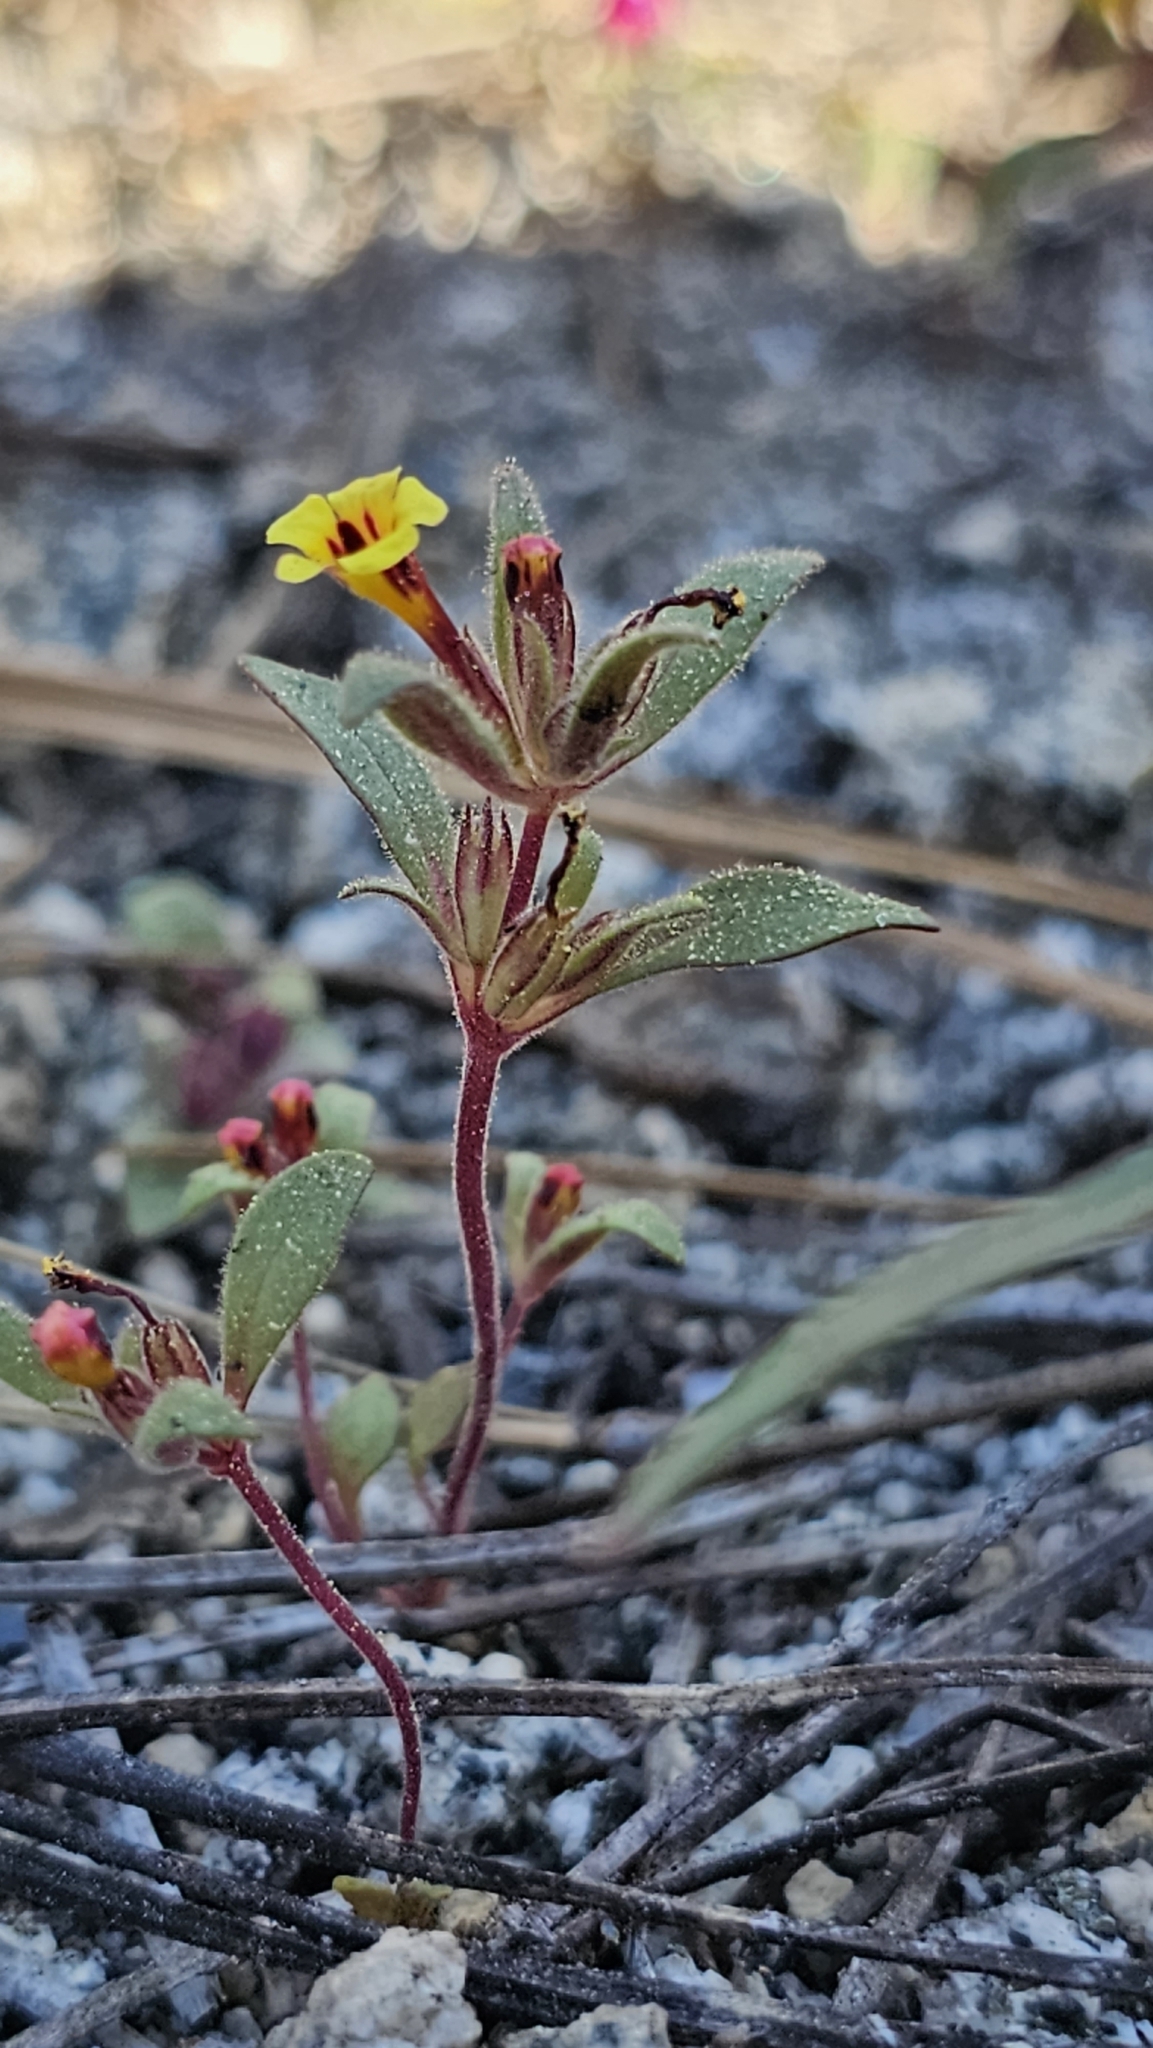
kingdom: Plantae
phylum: Tracheophyta
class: Magnoliopsida
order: Lamiales
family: Phrymaceae
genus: Diplacus
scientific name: Diplacus
